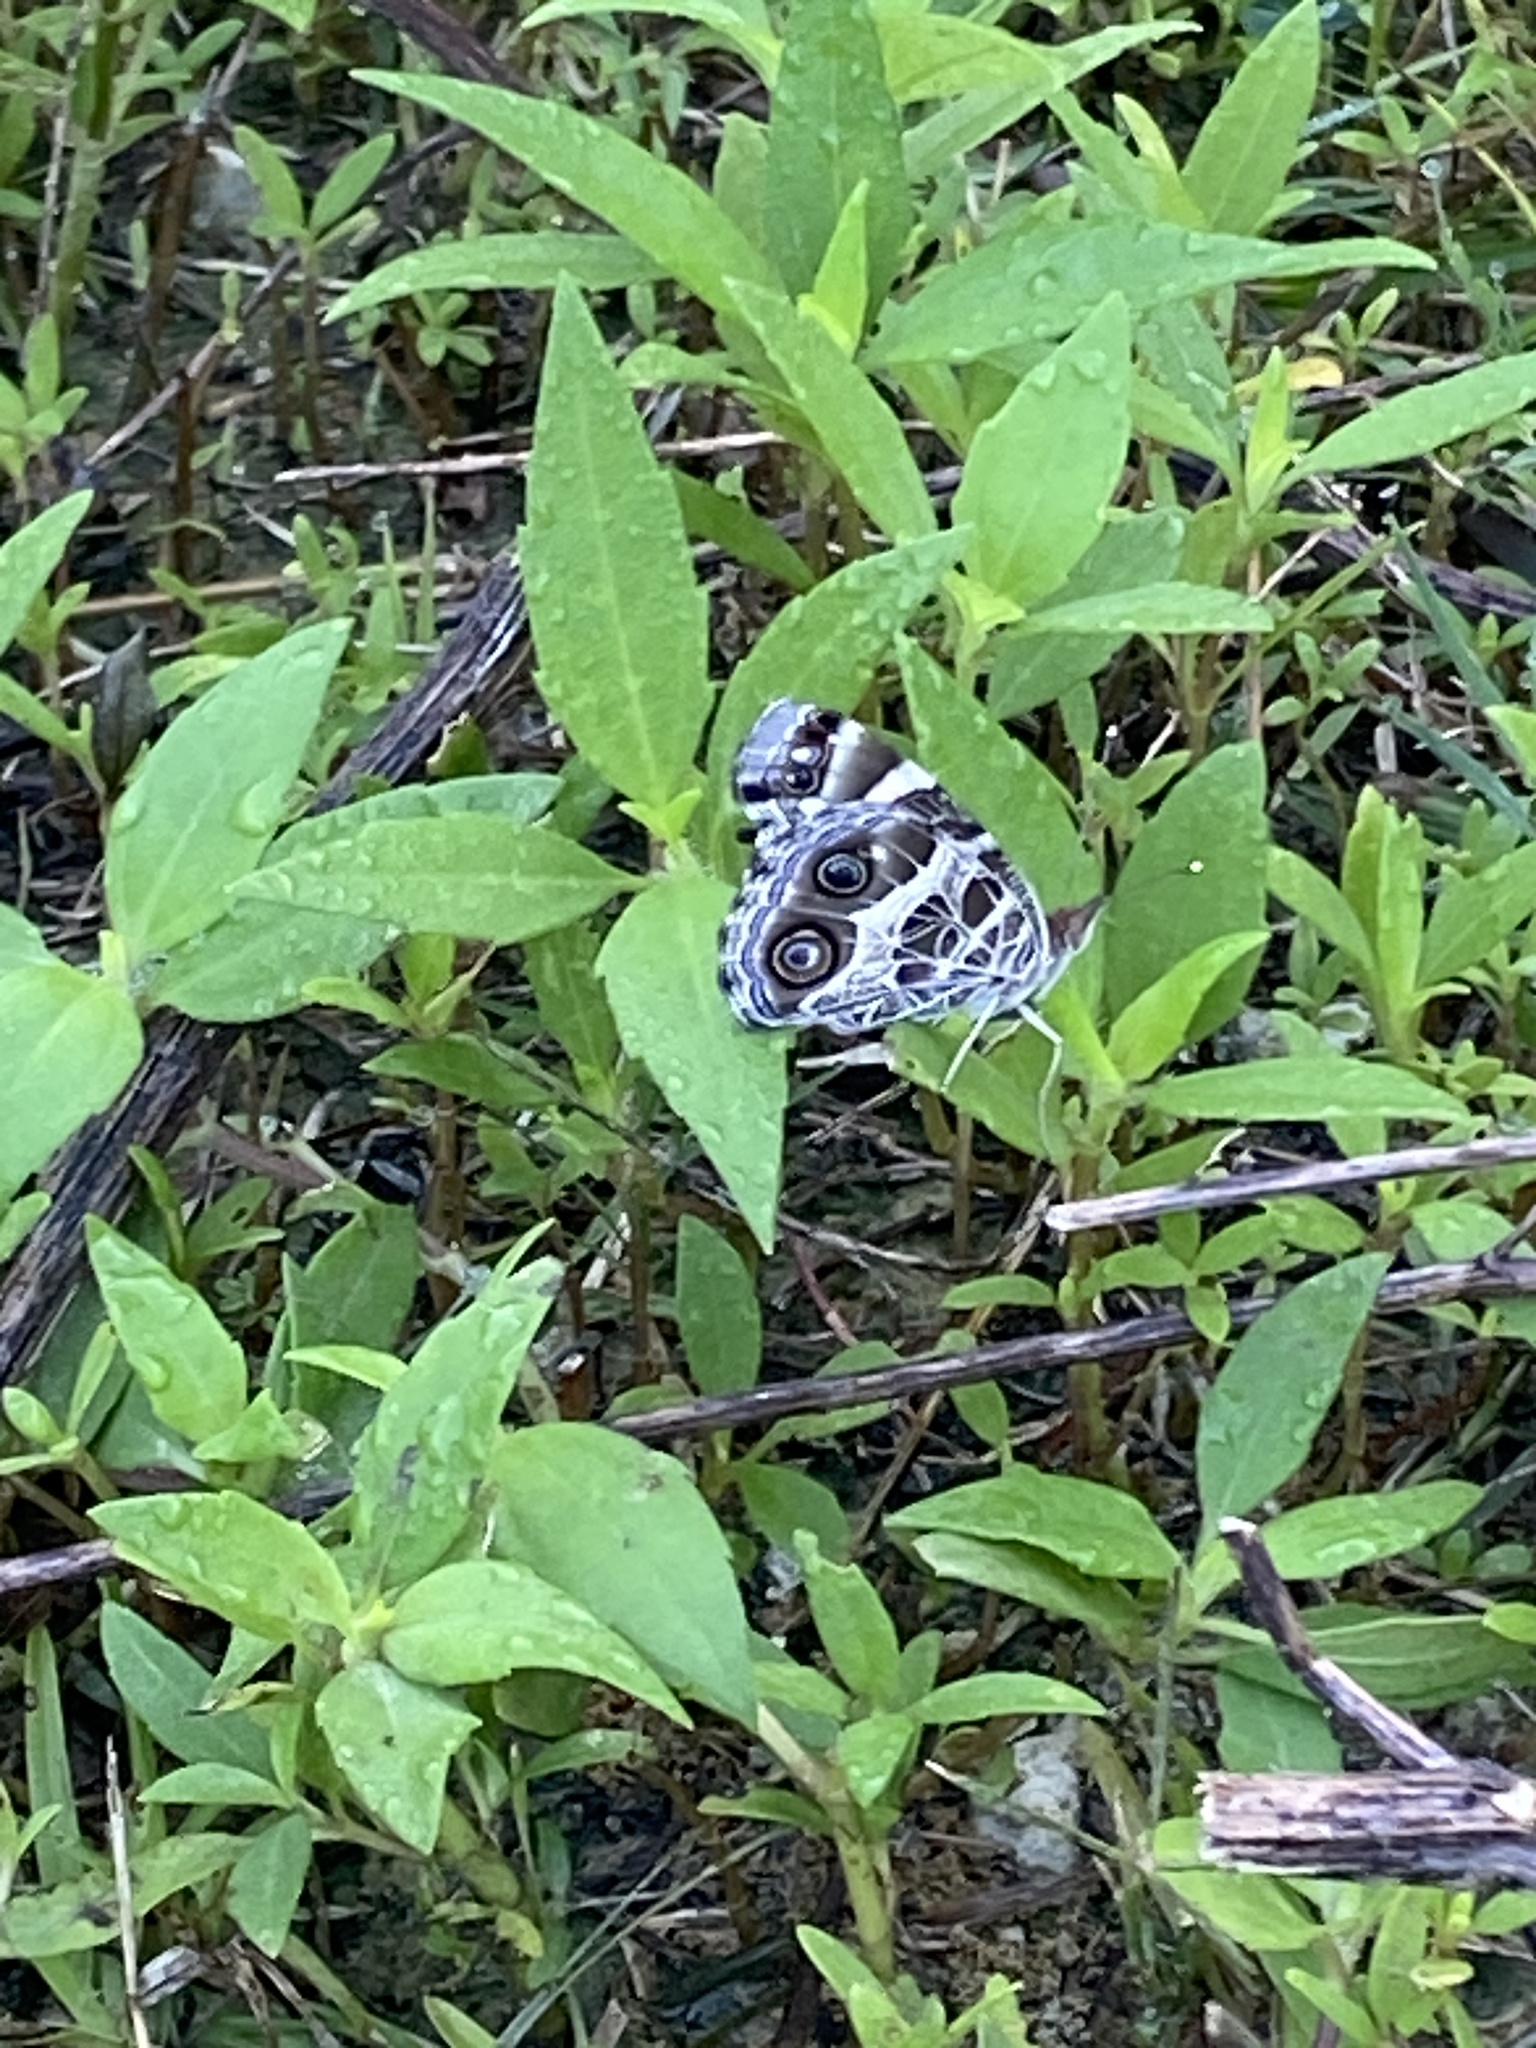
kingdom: Animalia
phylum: Arthropoda
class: Insecta
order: Lepidoptera
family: Nymphalidae
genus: Vanessa
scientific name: Vanessa virginiensis
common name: American lady
